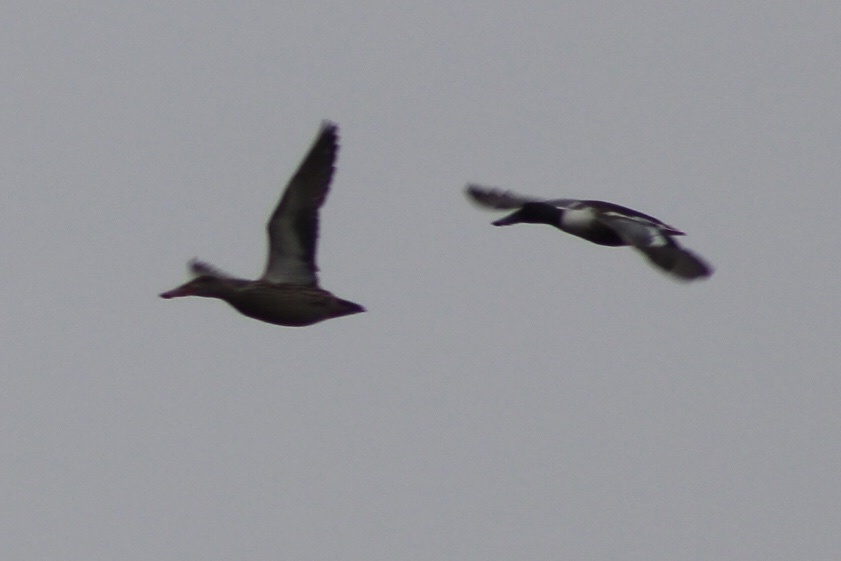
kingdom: Animalia
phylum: Chordata
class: Aves
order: Anseriformes
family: Anatidae
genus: Spatula
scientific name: Spatula clypeata
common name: Northern shoveler
